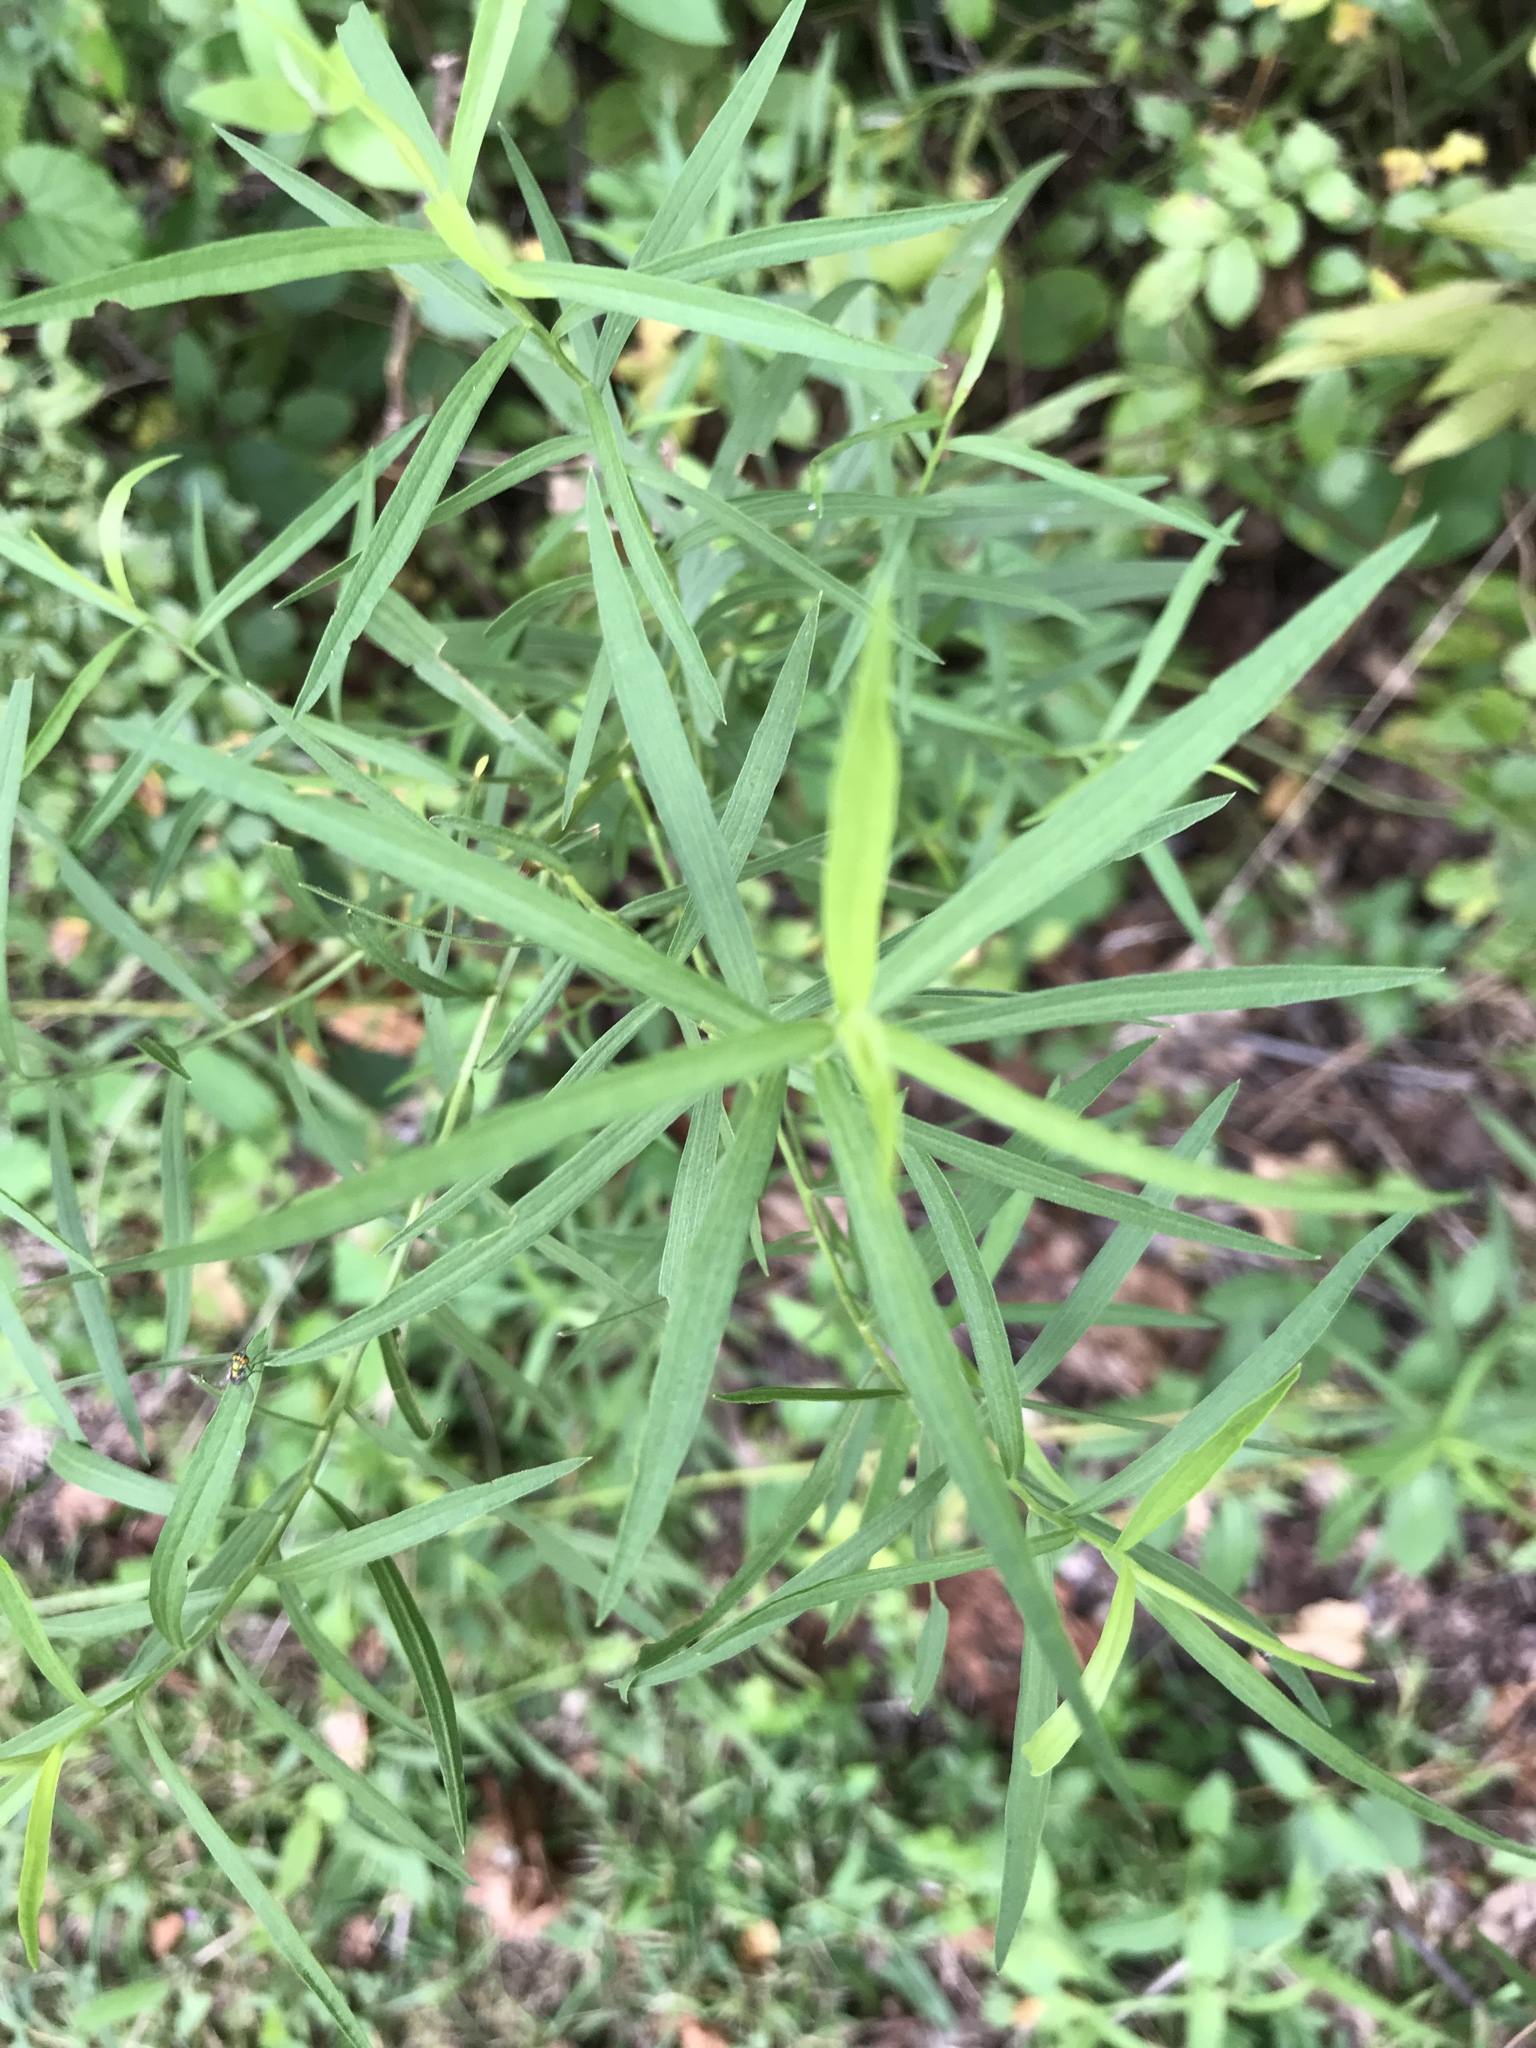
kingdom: Plantae
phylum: Tracheophyta
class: Magnoliopsida
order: Asterales
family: Asteraceae
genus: Euthamia
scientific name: Euthamia graminifolia
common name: Common goldentop
